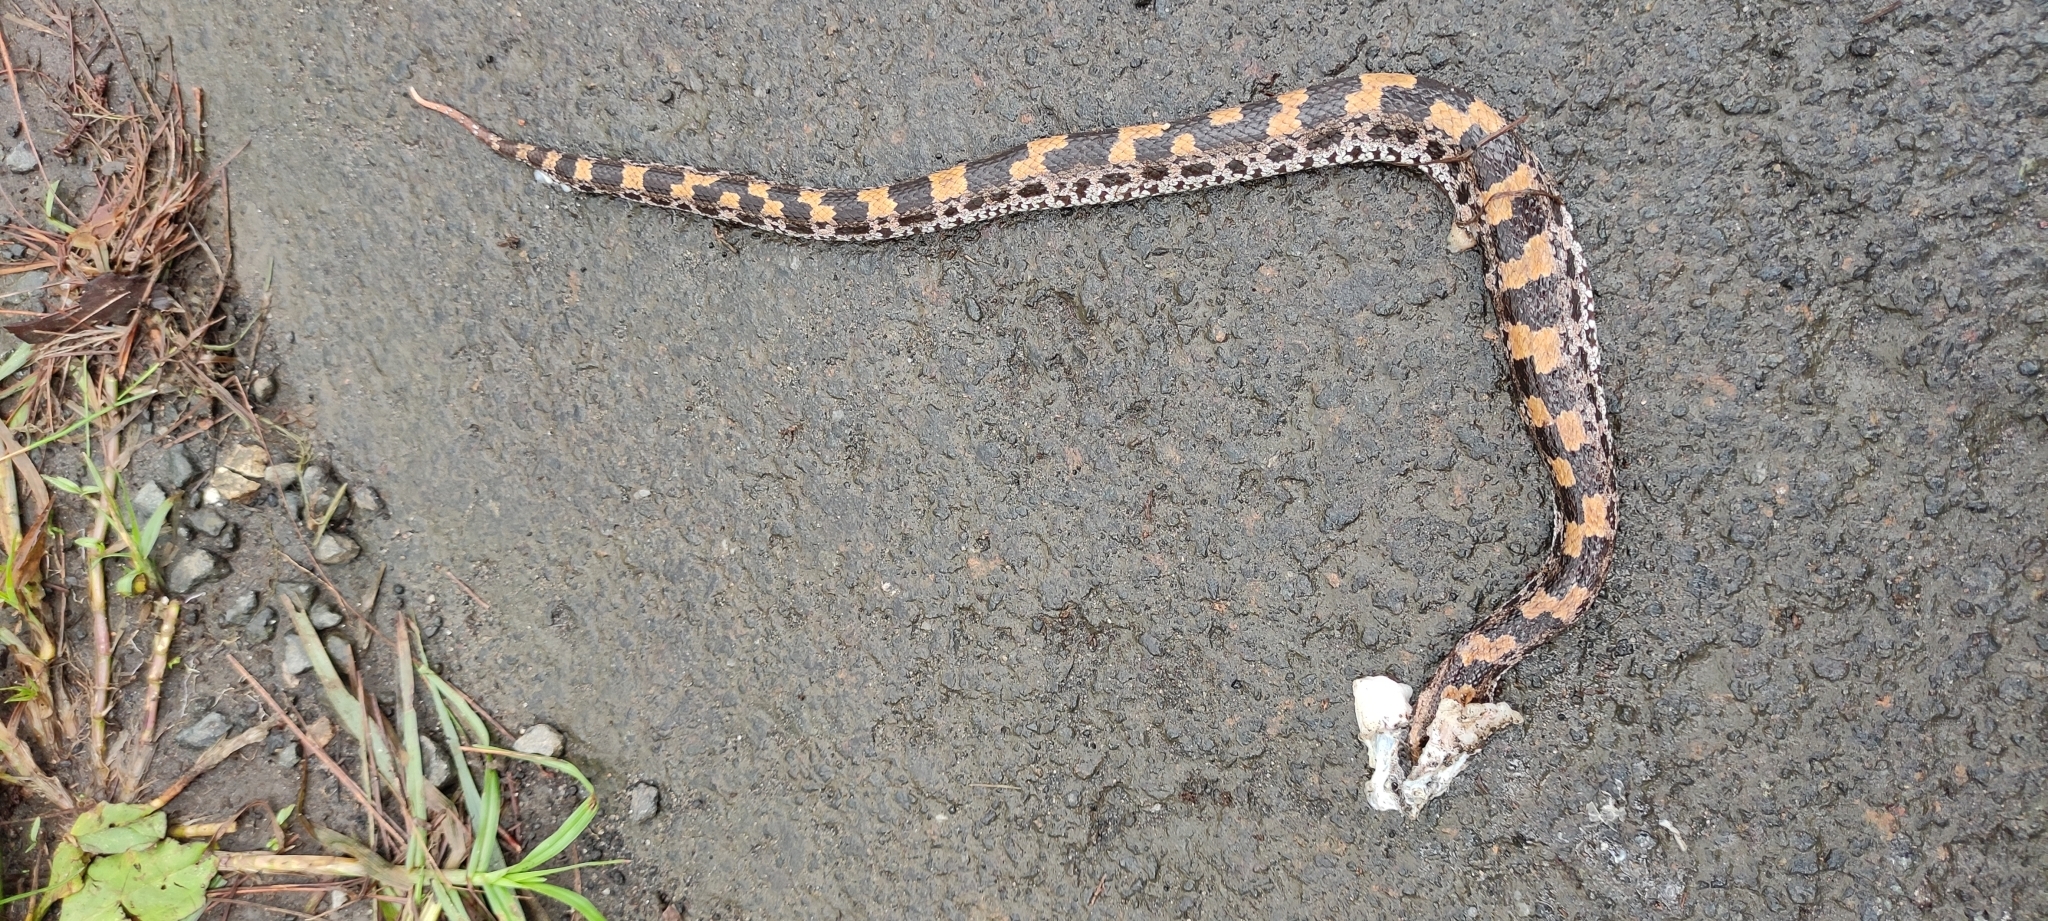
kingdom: Animalia
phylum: Chordata
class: Squamata
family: Viperidae
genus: Ovophis
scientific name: Ovophis monticola
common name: Mountain pit viper
